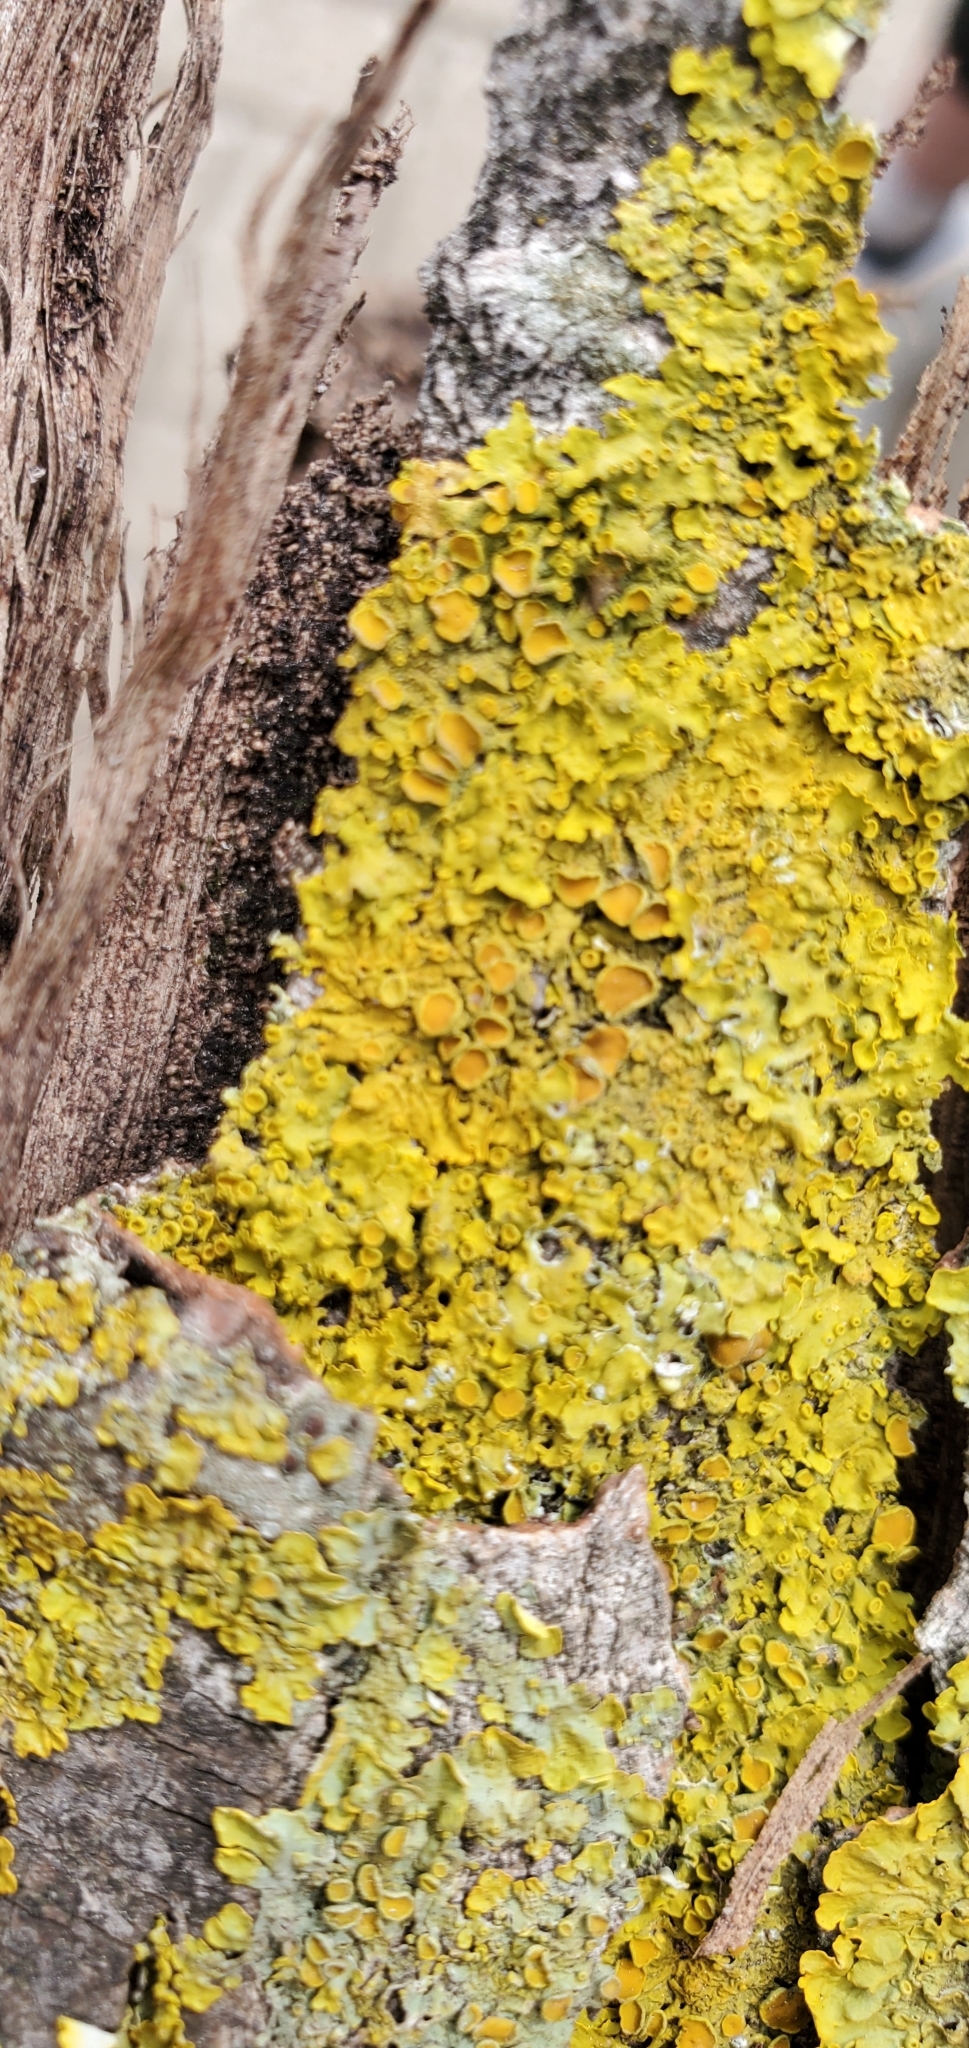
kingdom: Fungi
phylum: Ascomycota
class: Lecanoromycetes
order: Teloschistales
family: Teloschistaceae
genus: Xanthoria
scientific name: Xanthoria parietina
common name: Common orange lichen
